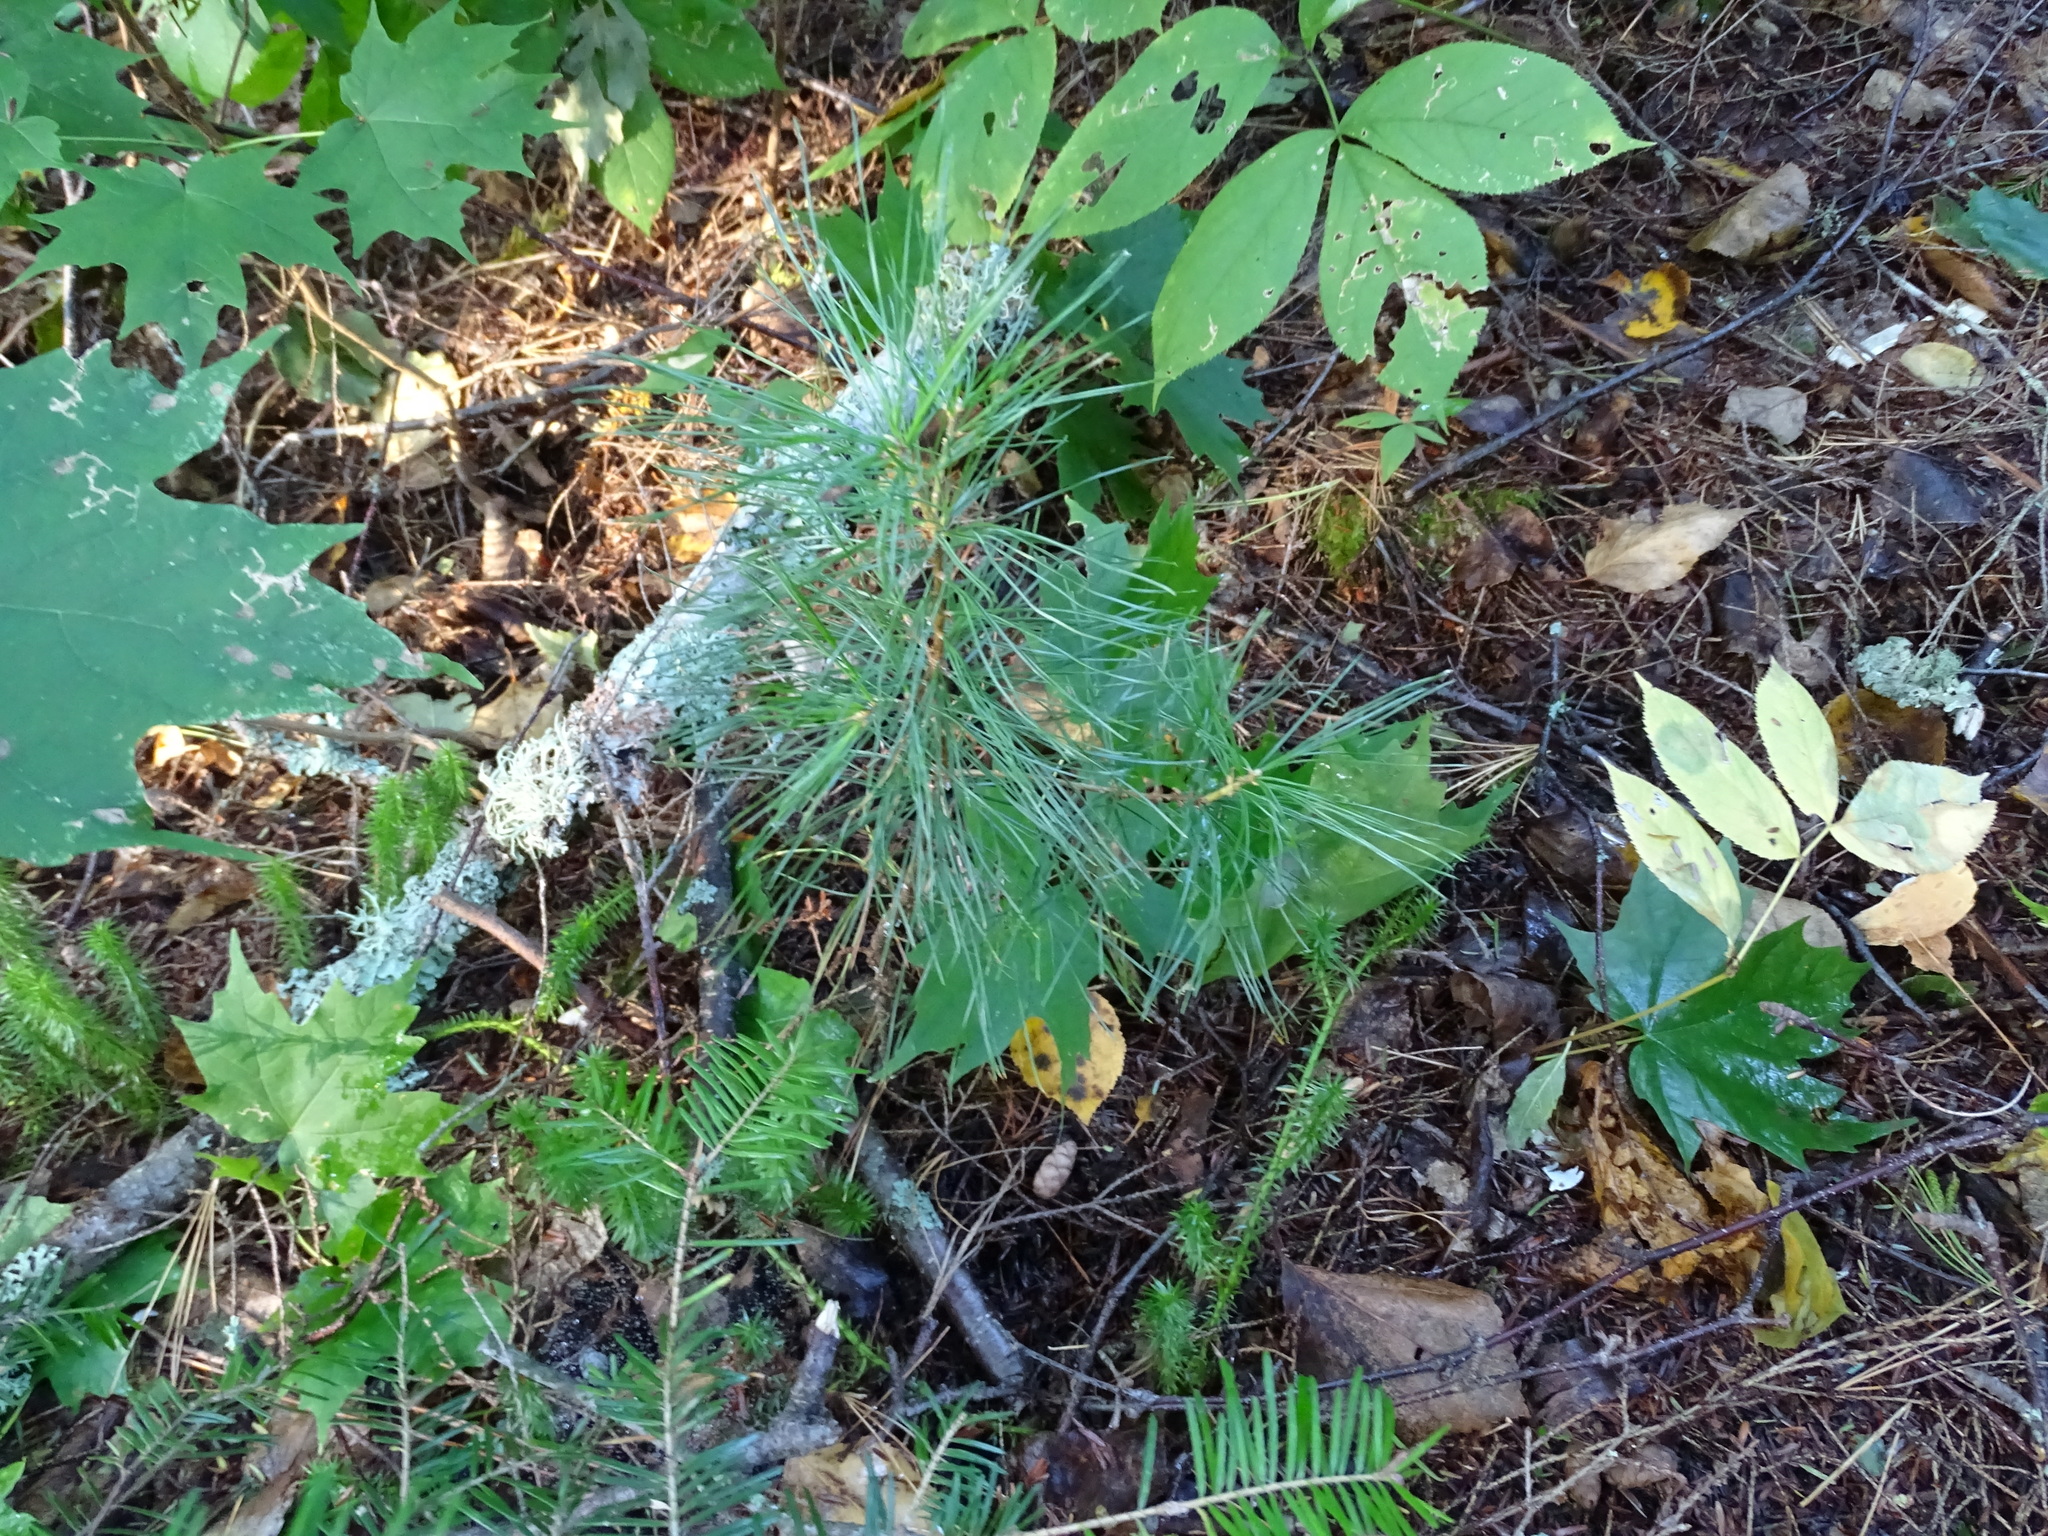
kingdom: Plantae
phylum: Tracheophyta
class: Pinopsida
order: Pinales
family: Pinaceae
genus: Pinus
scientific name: Pinus strobus
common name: Weymouth pine
